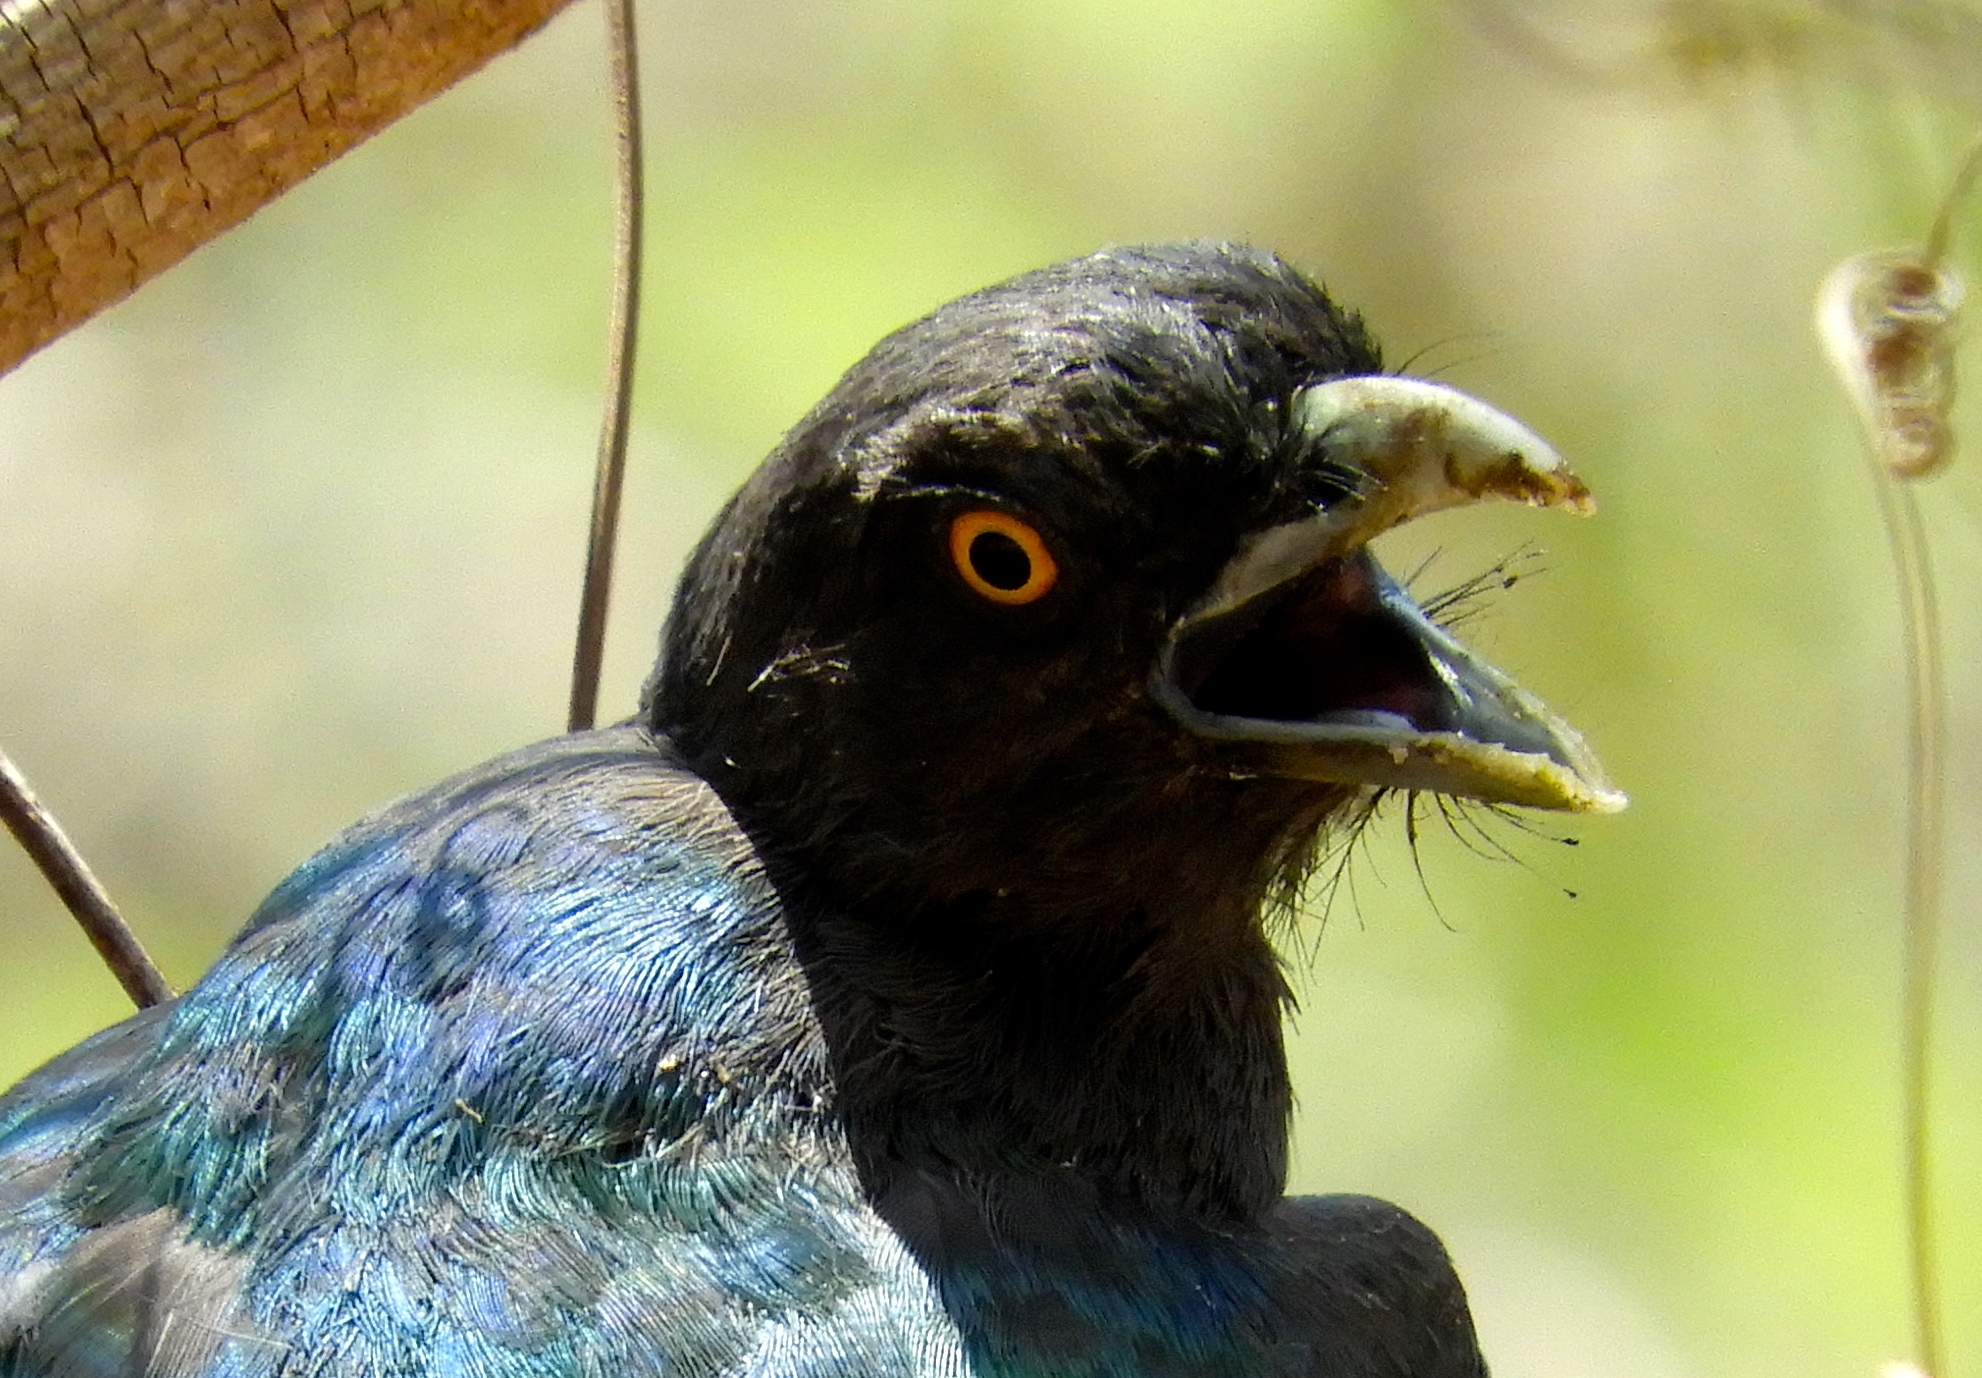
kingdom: Animalia
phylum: Chordata
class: Aves
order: Trogoniformes
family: Trogonidae
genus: Trogon
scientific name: Trogon citreolus
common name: Citreoline trogon
